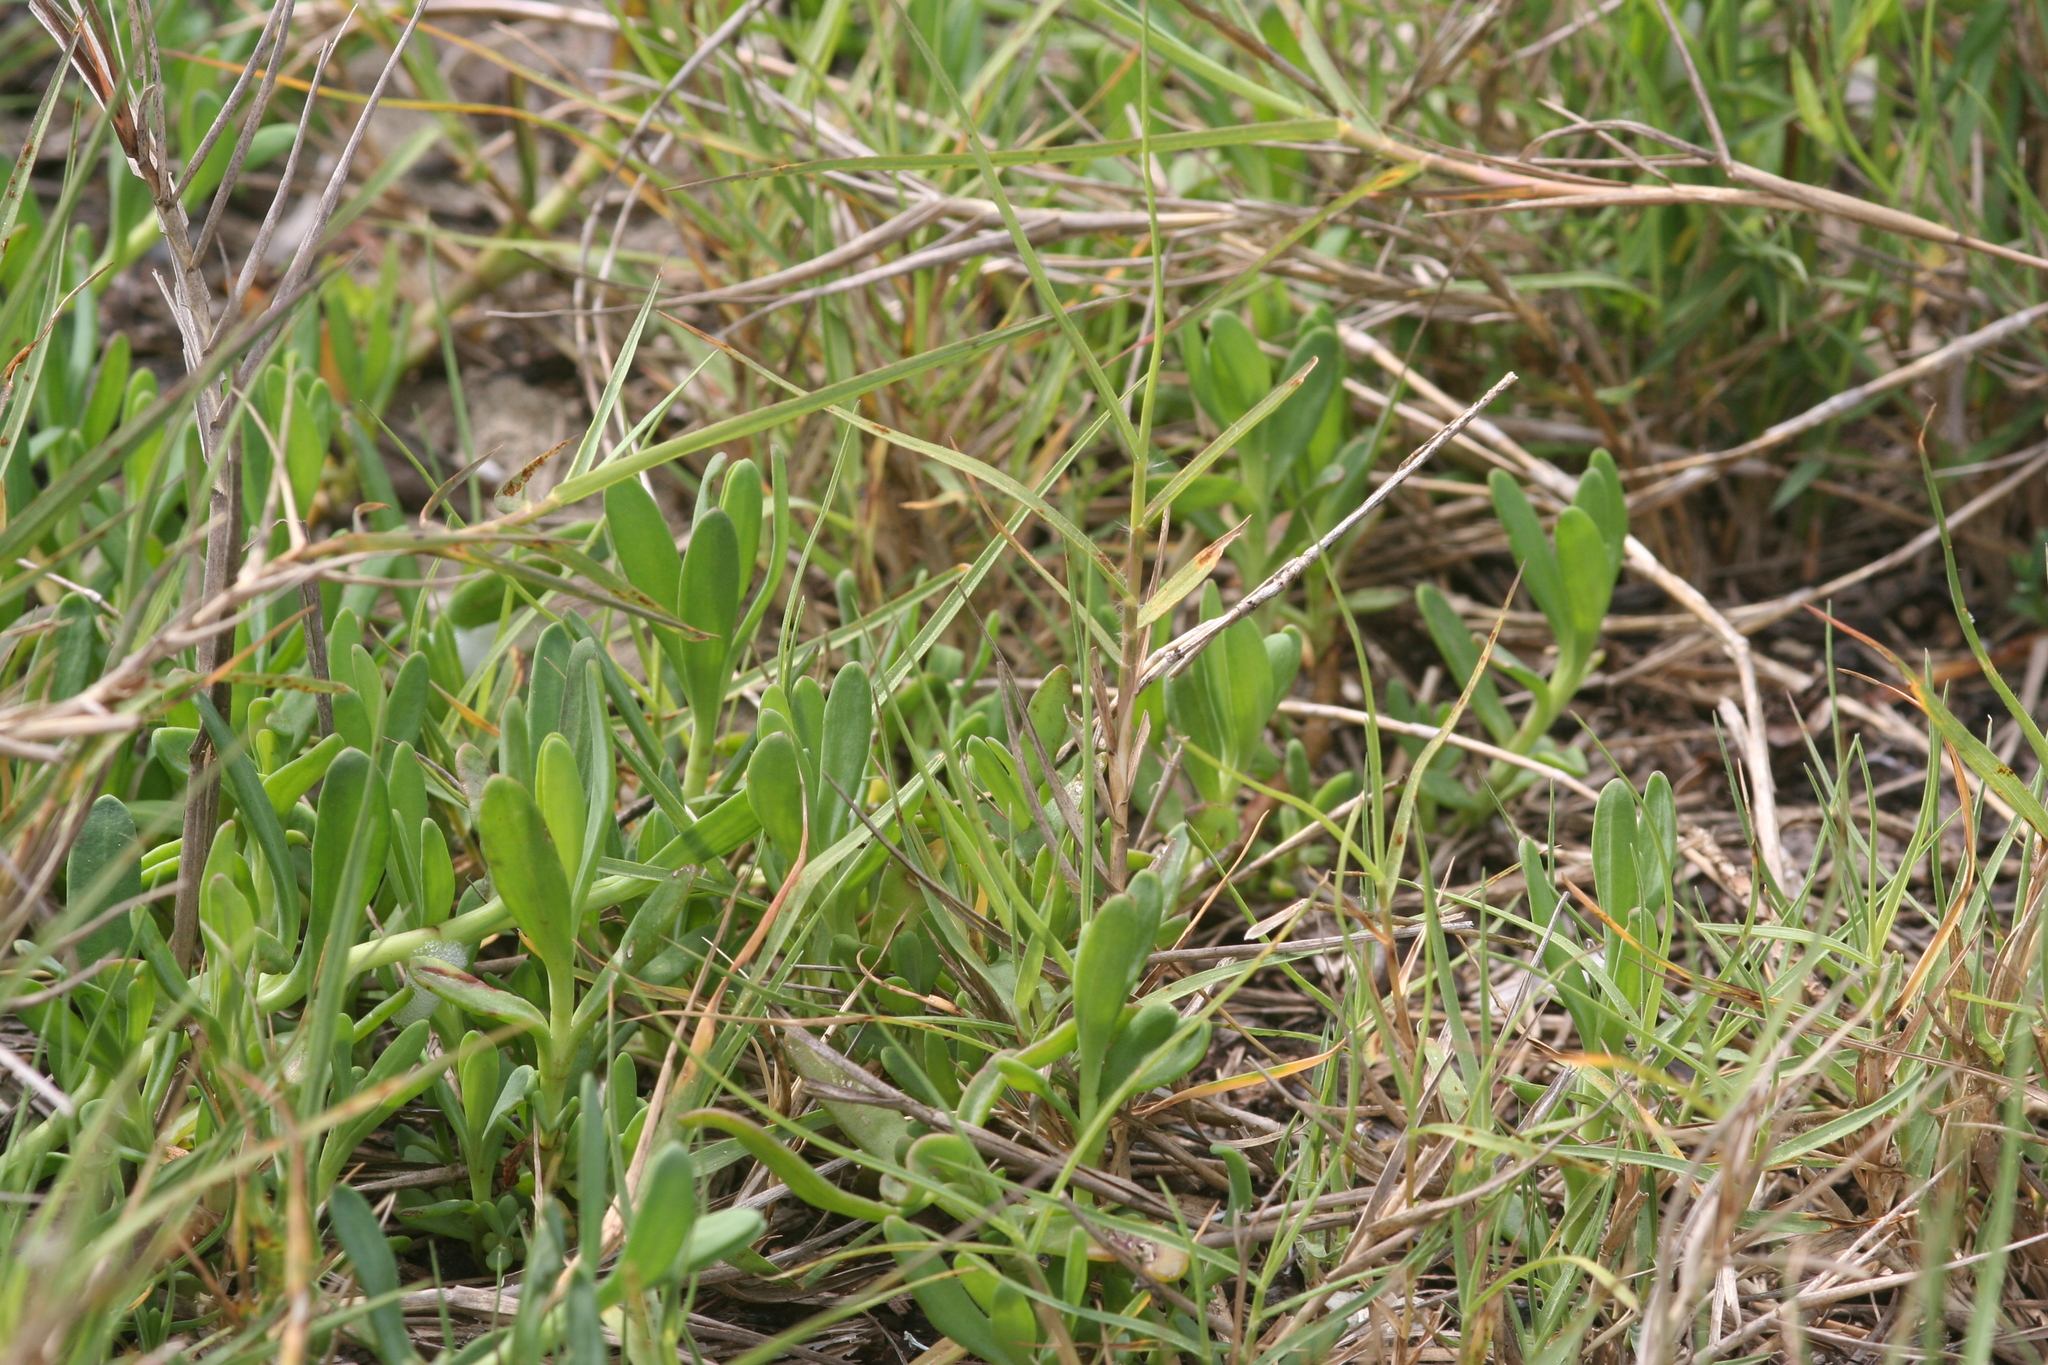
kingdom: Plantae
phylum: Tracheophyta
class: Magnoliopsida
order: Asterales
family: Asteraceae
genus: Jaumea
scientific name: Jaumea carnosa
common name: Fleshy jaumea
